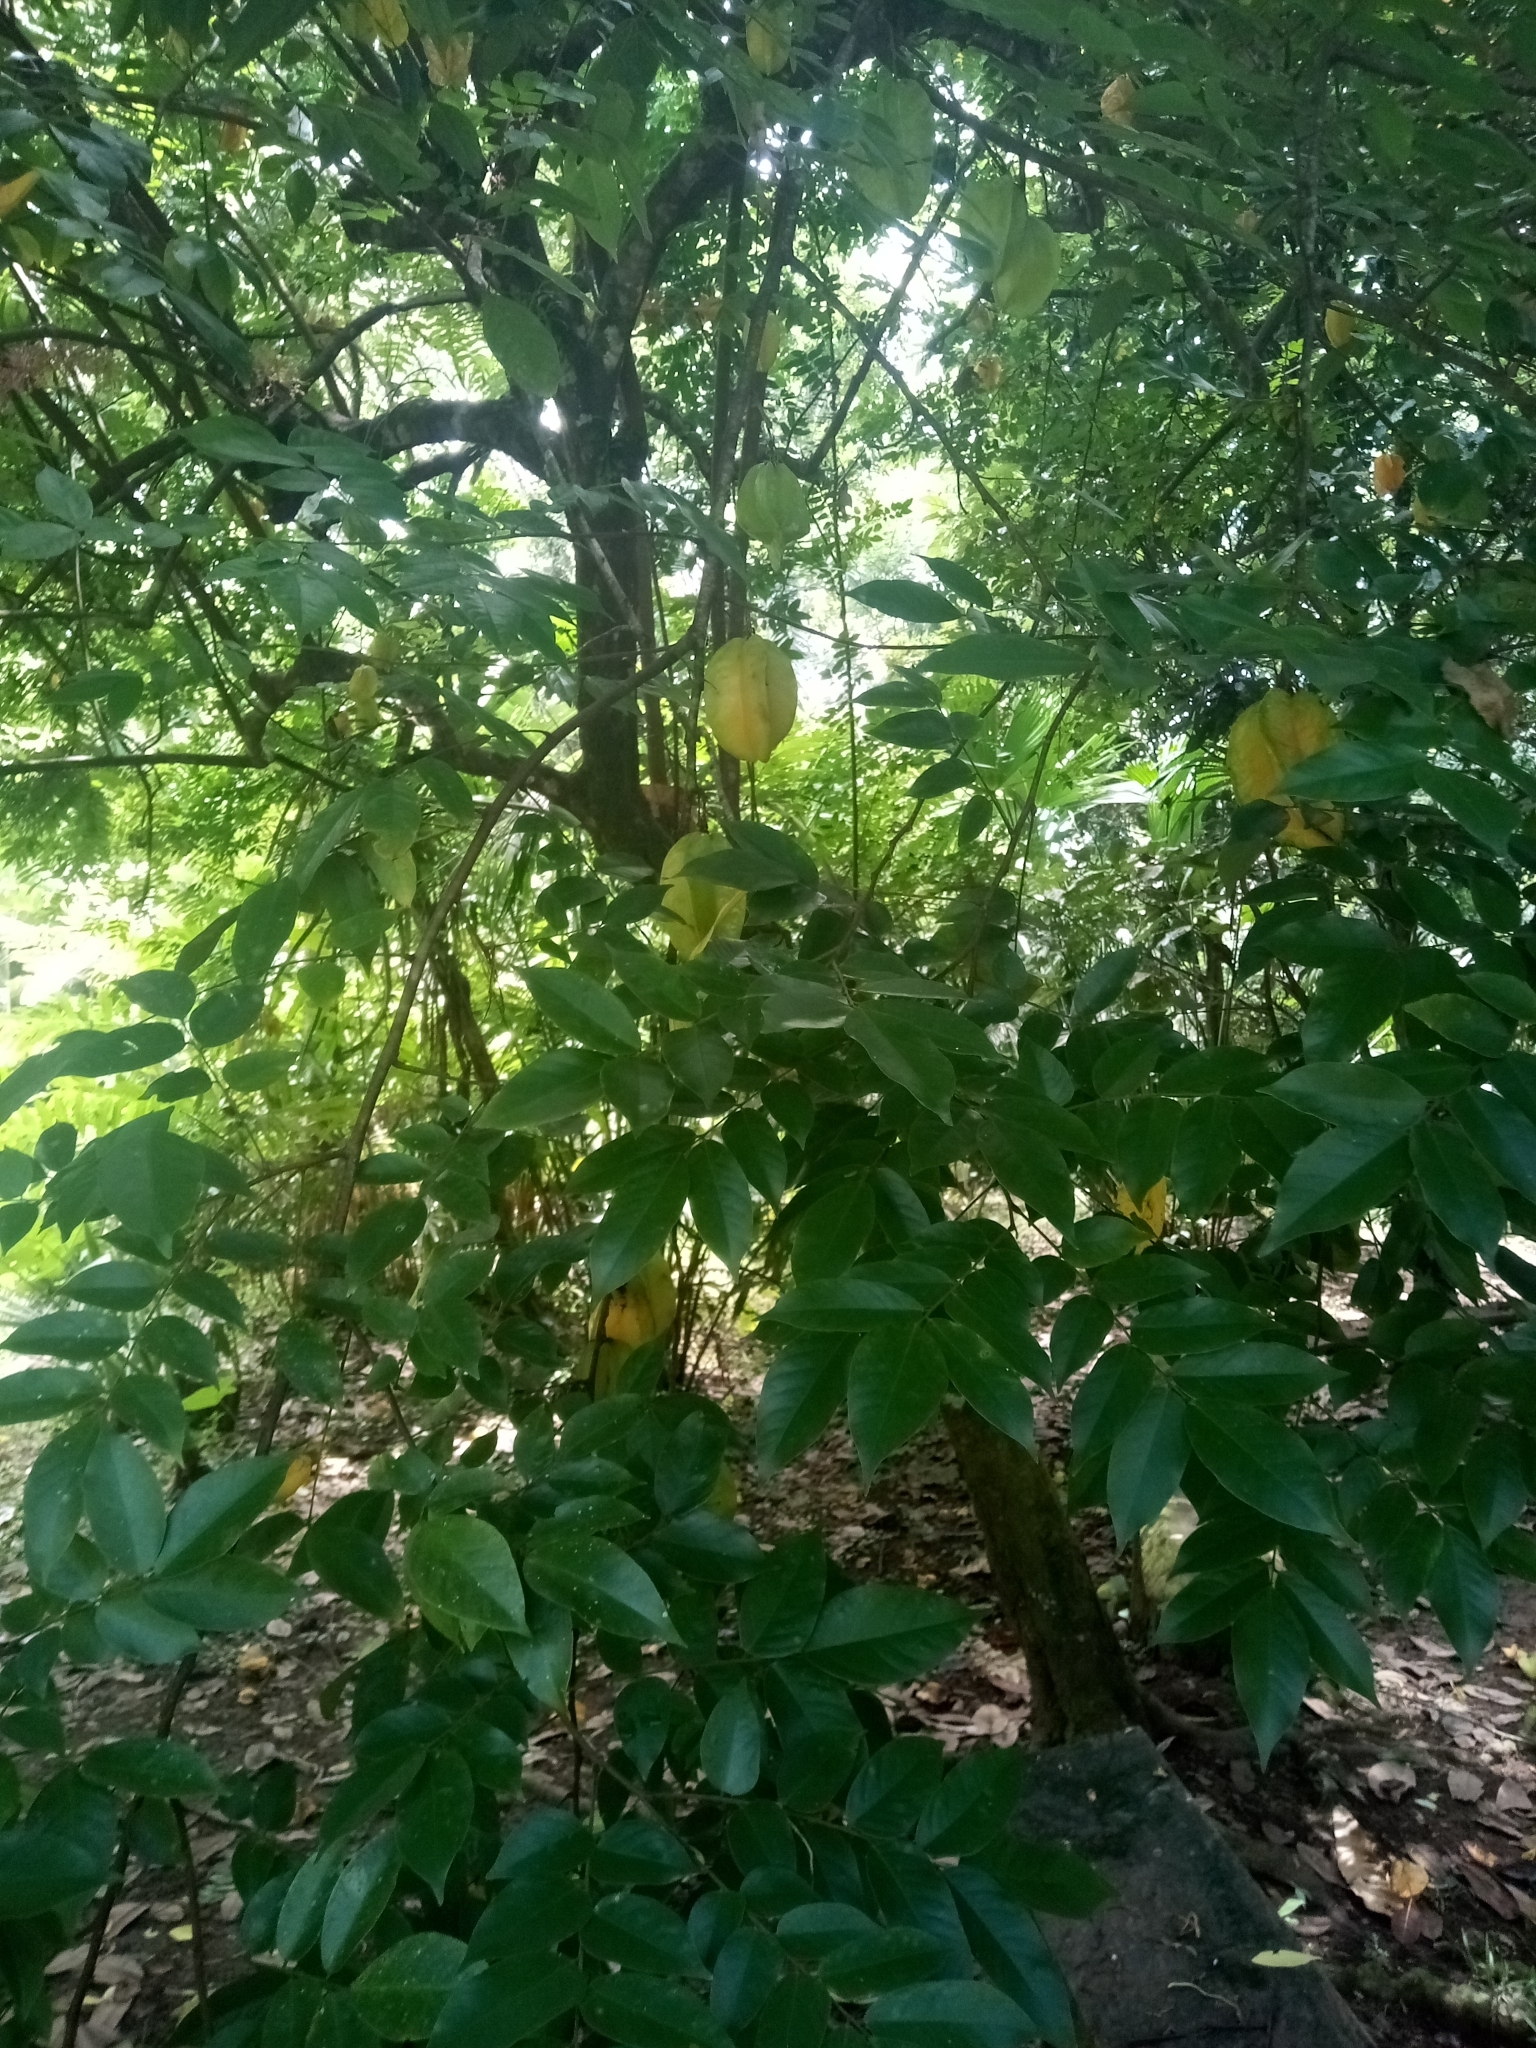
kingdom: Plantae
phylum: Tracheophyta
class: Magnoliopsida
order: Oxalidales
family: Oxalidaceae
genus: Averrhoa
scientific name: Averrhoa carambola
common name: Blimbing
